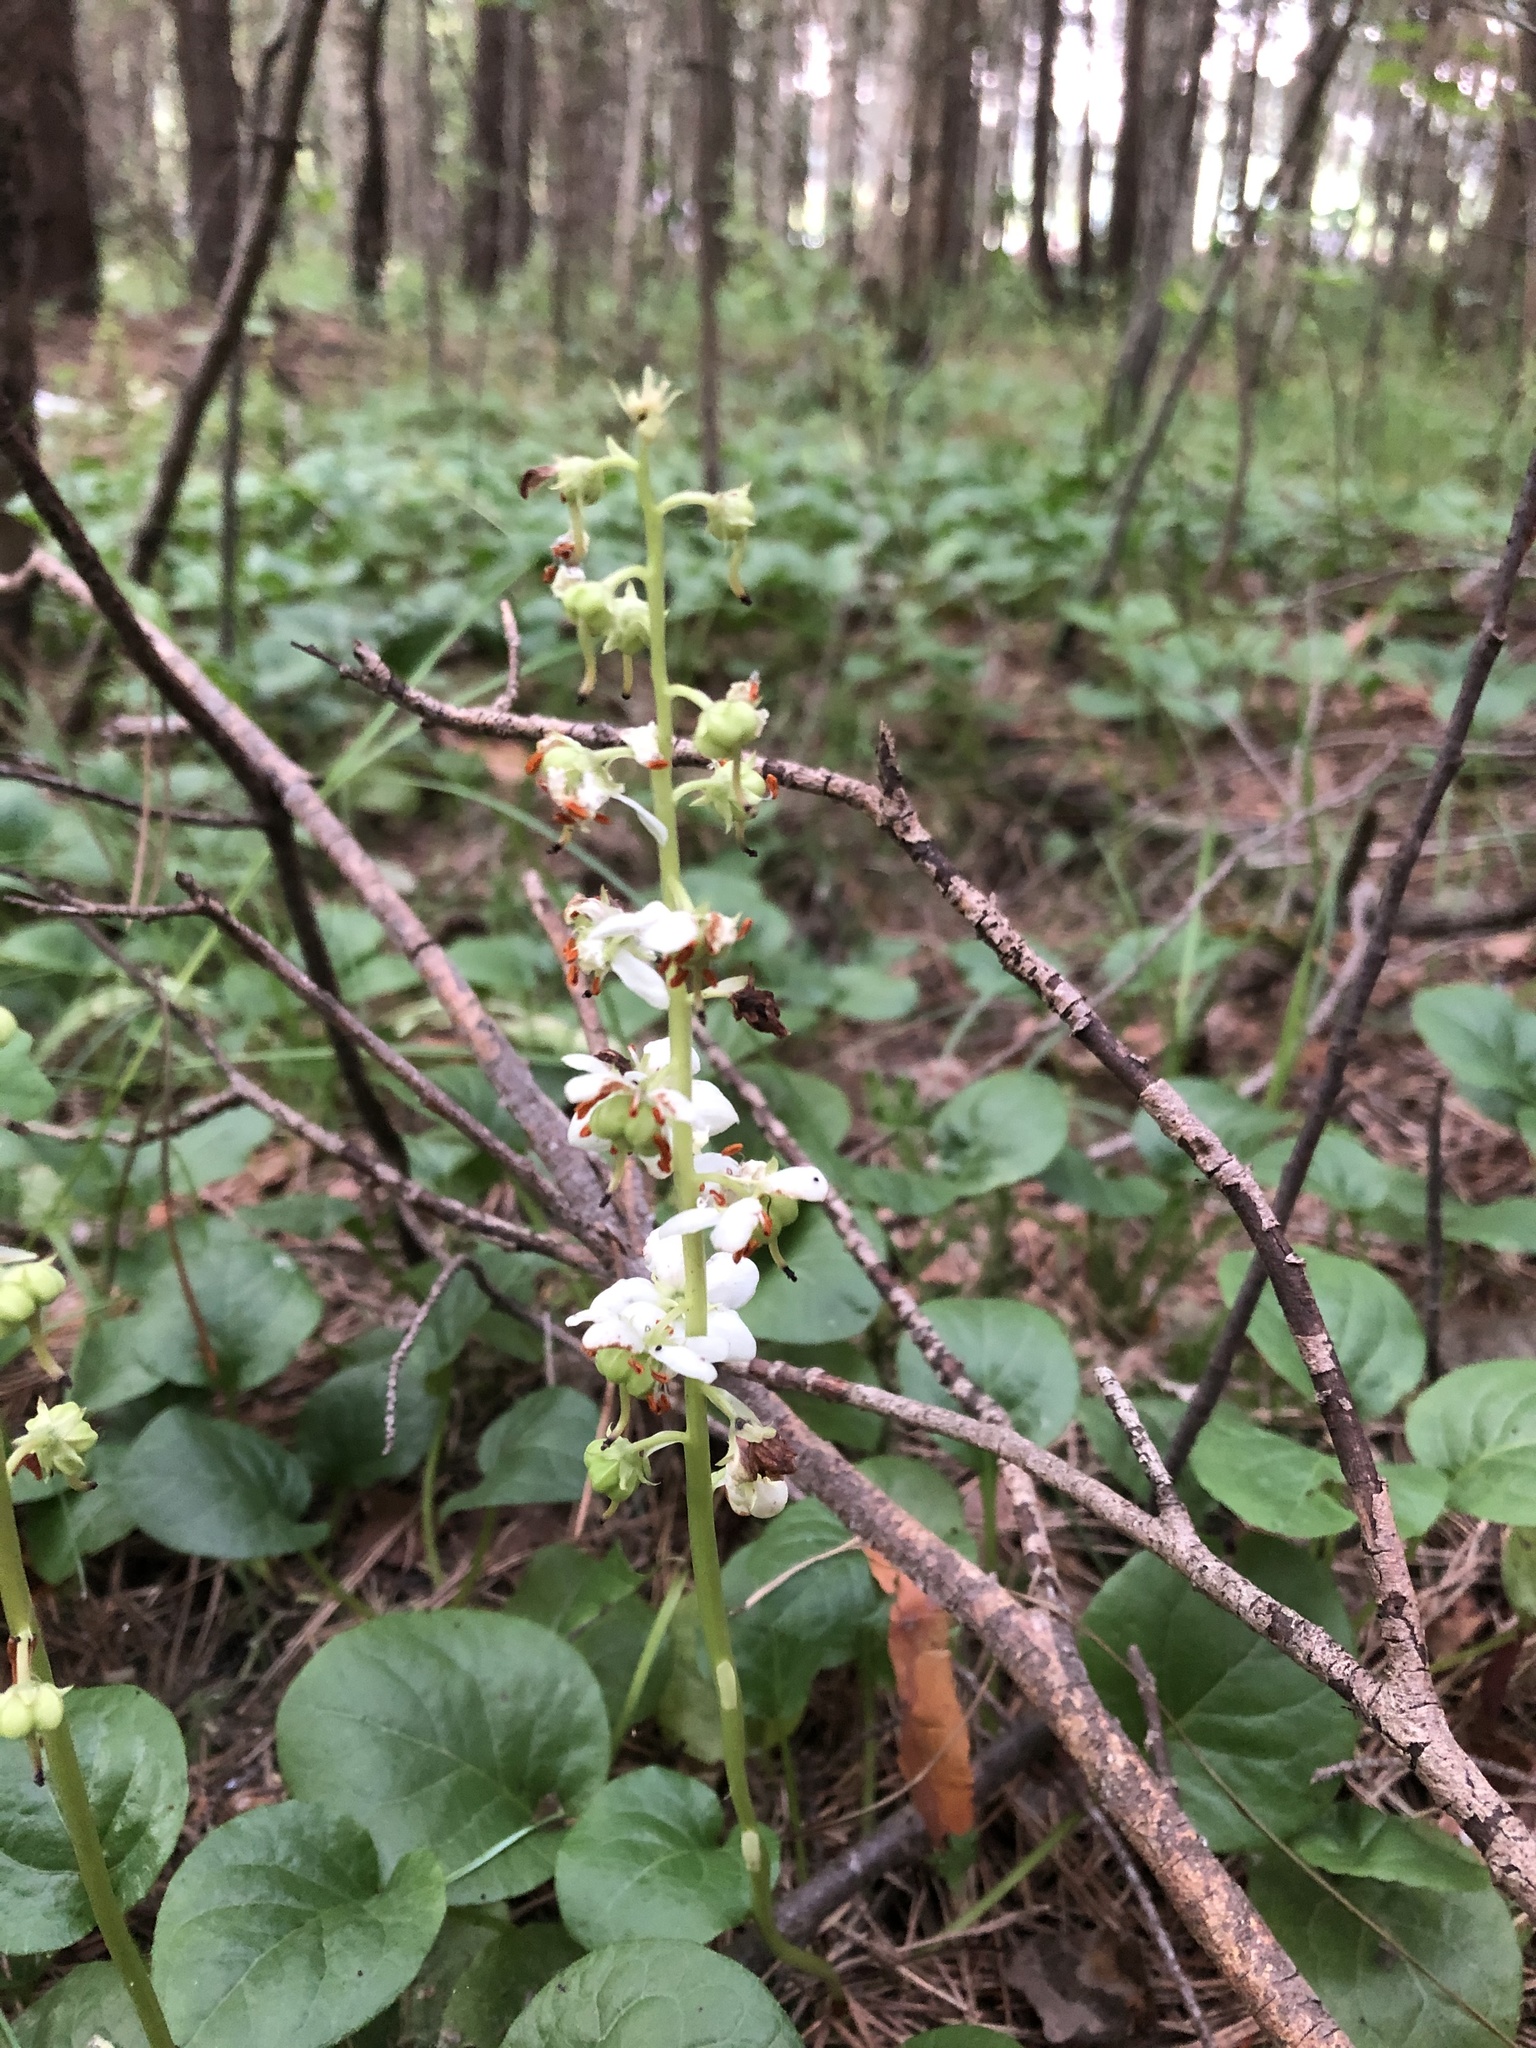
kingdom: Plantae
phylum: Tracheophyta
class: Magnoliopsida
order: Ericales
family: Ericaceae
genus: Pyrola
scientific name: Pyrola rotundifolia
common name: Round-leaved wintergreen
